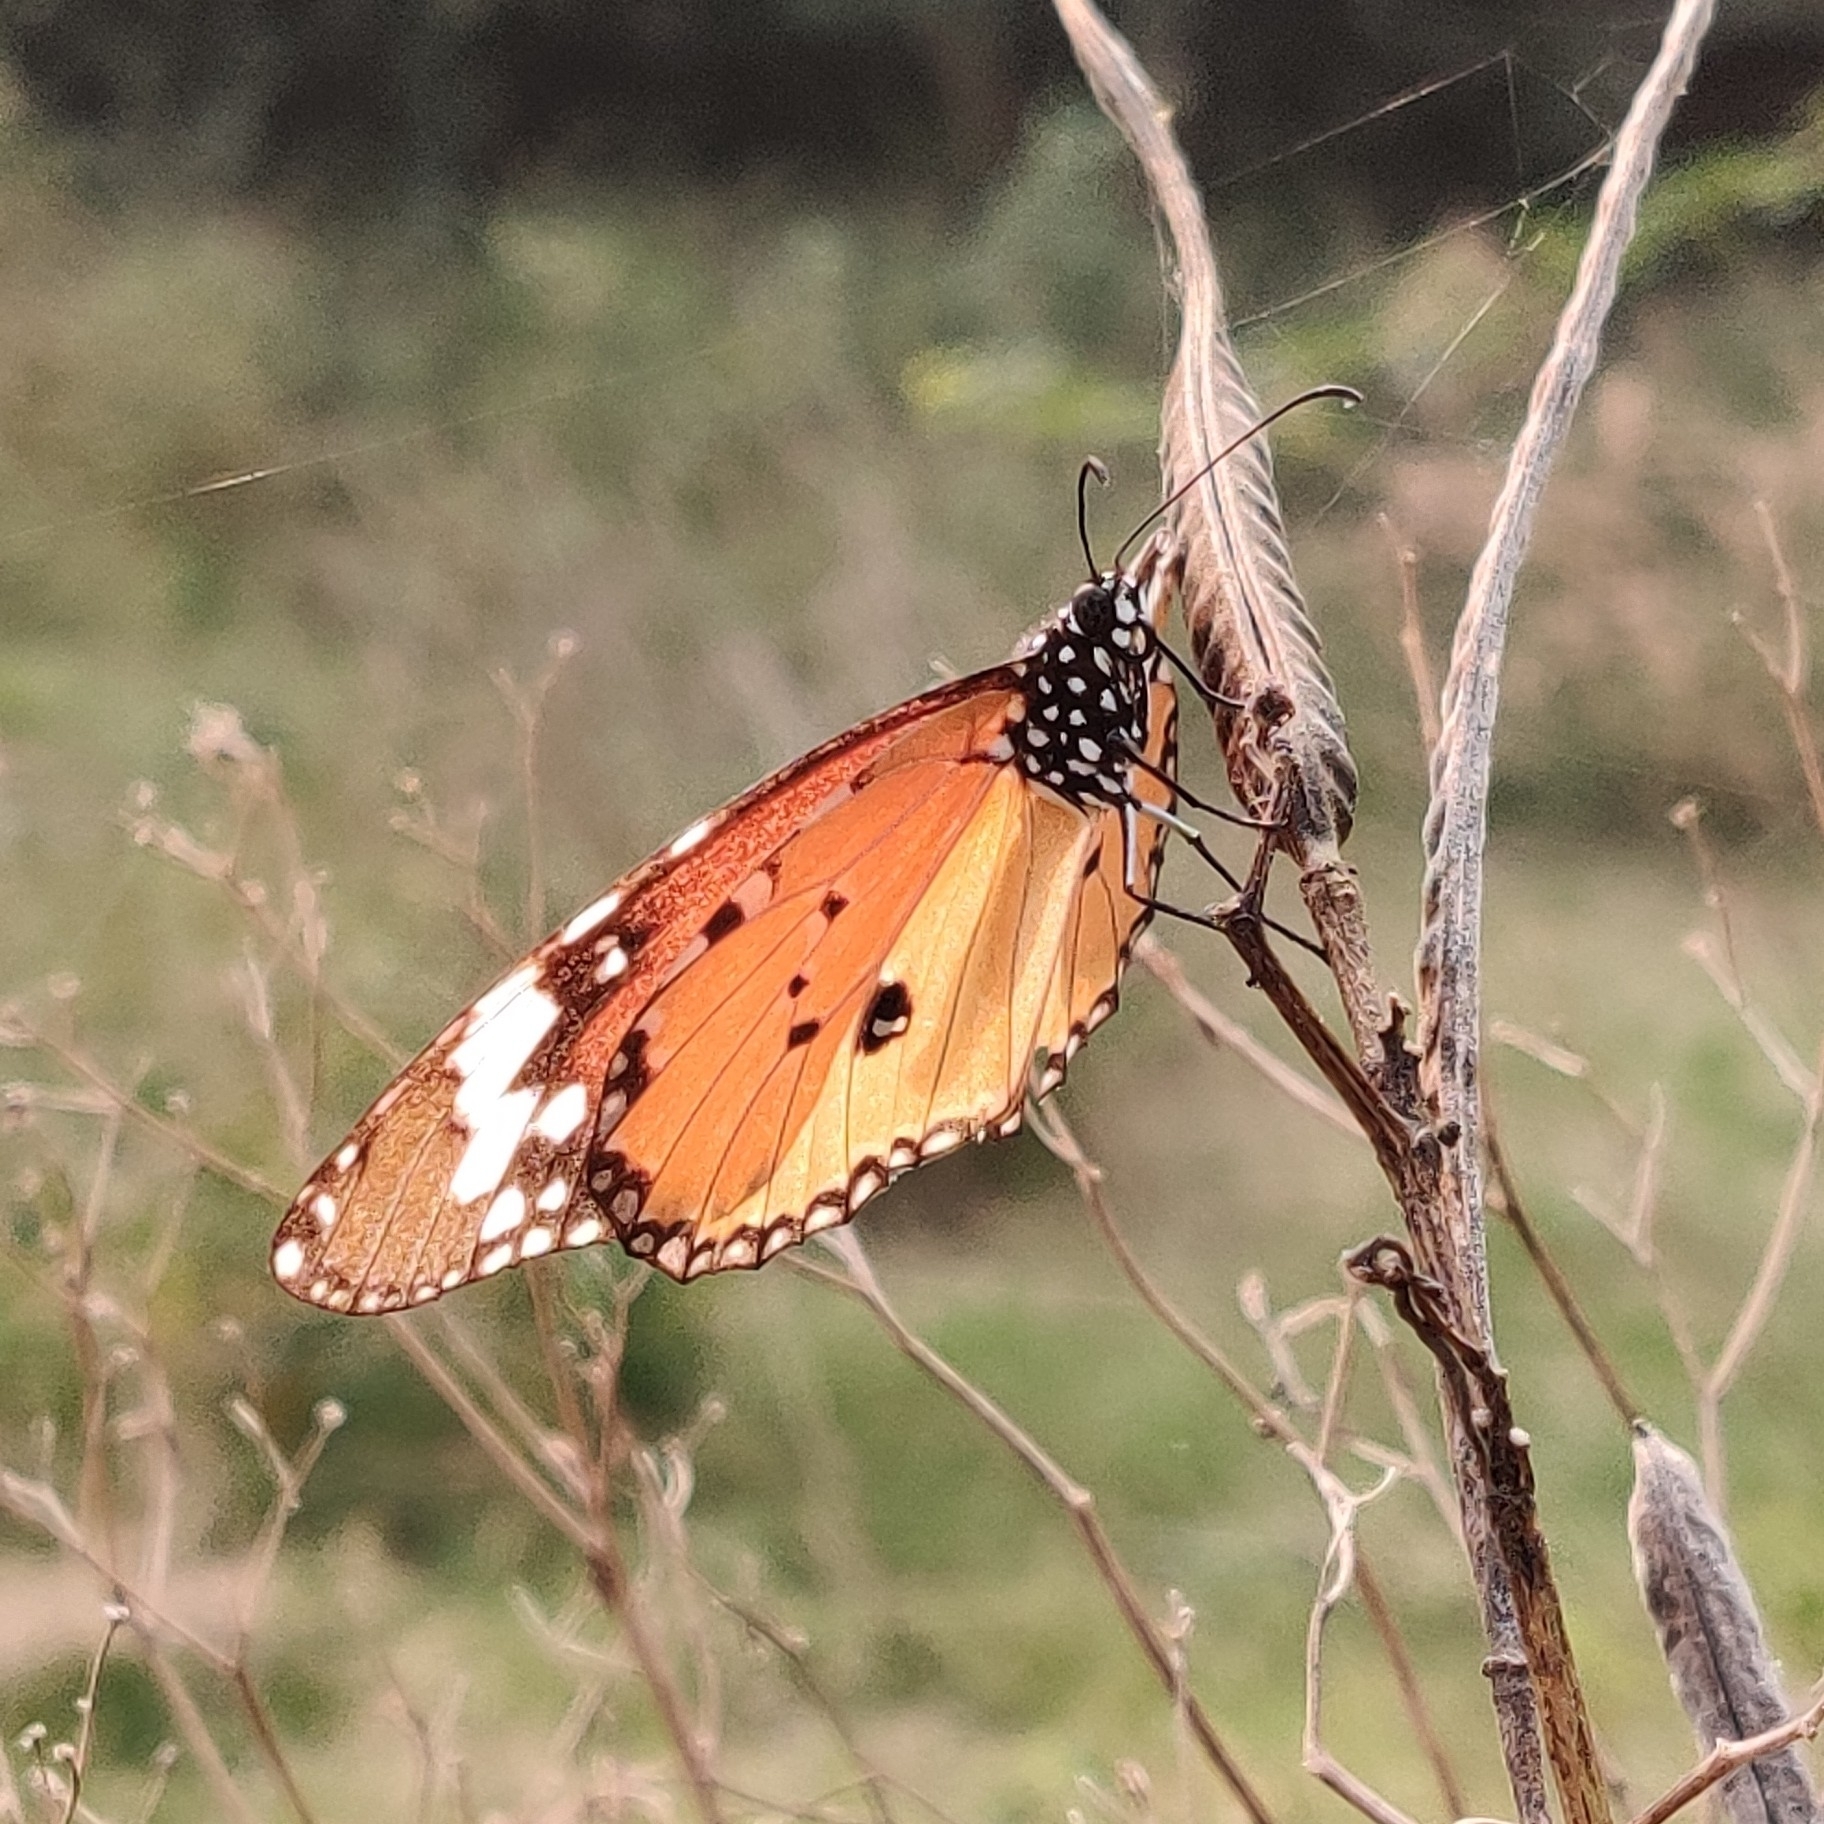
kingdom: Animalia
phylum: Arthropoda
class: Insecta
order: Lepidoptera
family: Nymphalidae
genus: Danaus
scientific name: Danaus chrysippus
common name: Plain tiger
